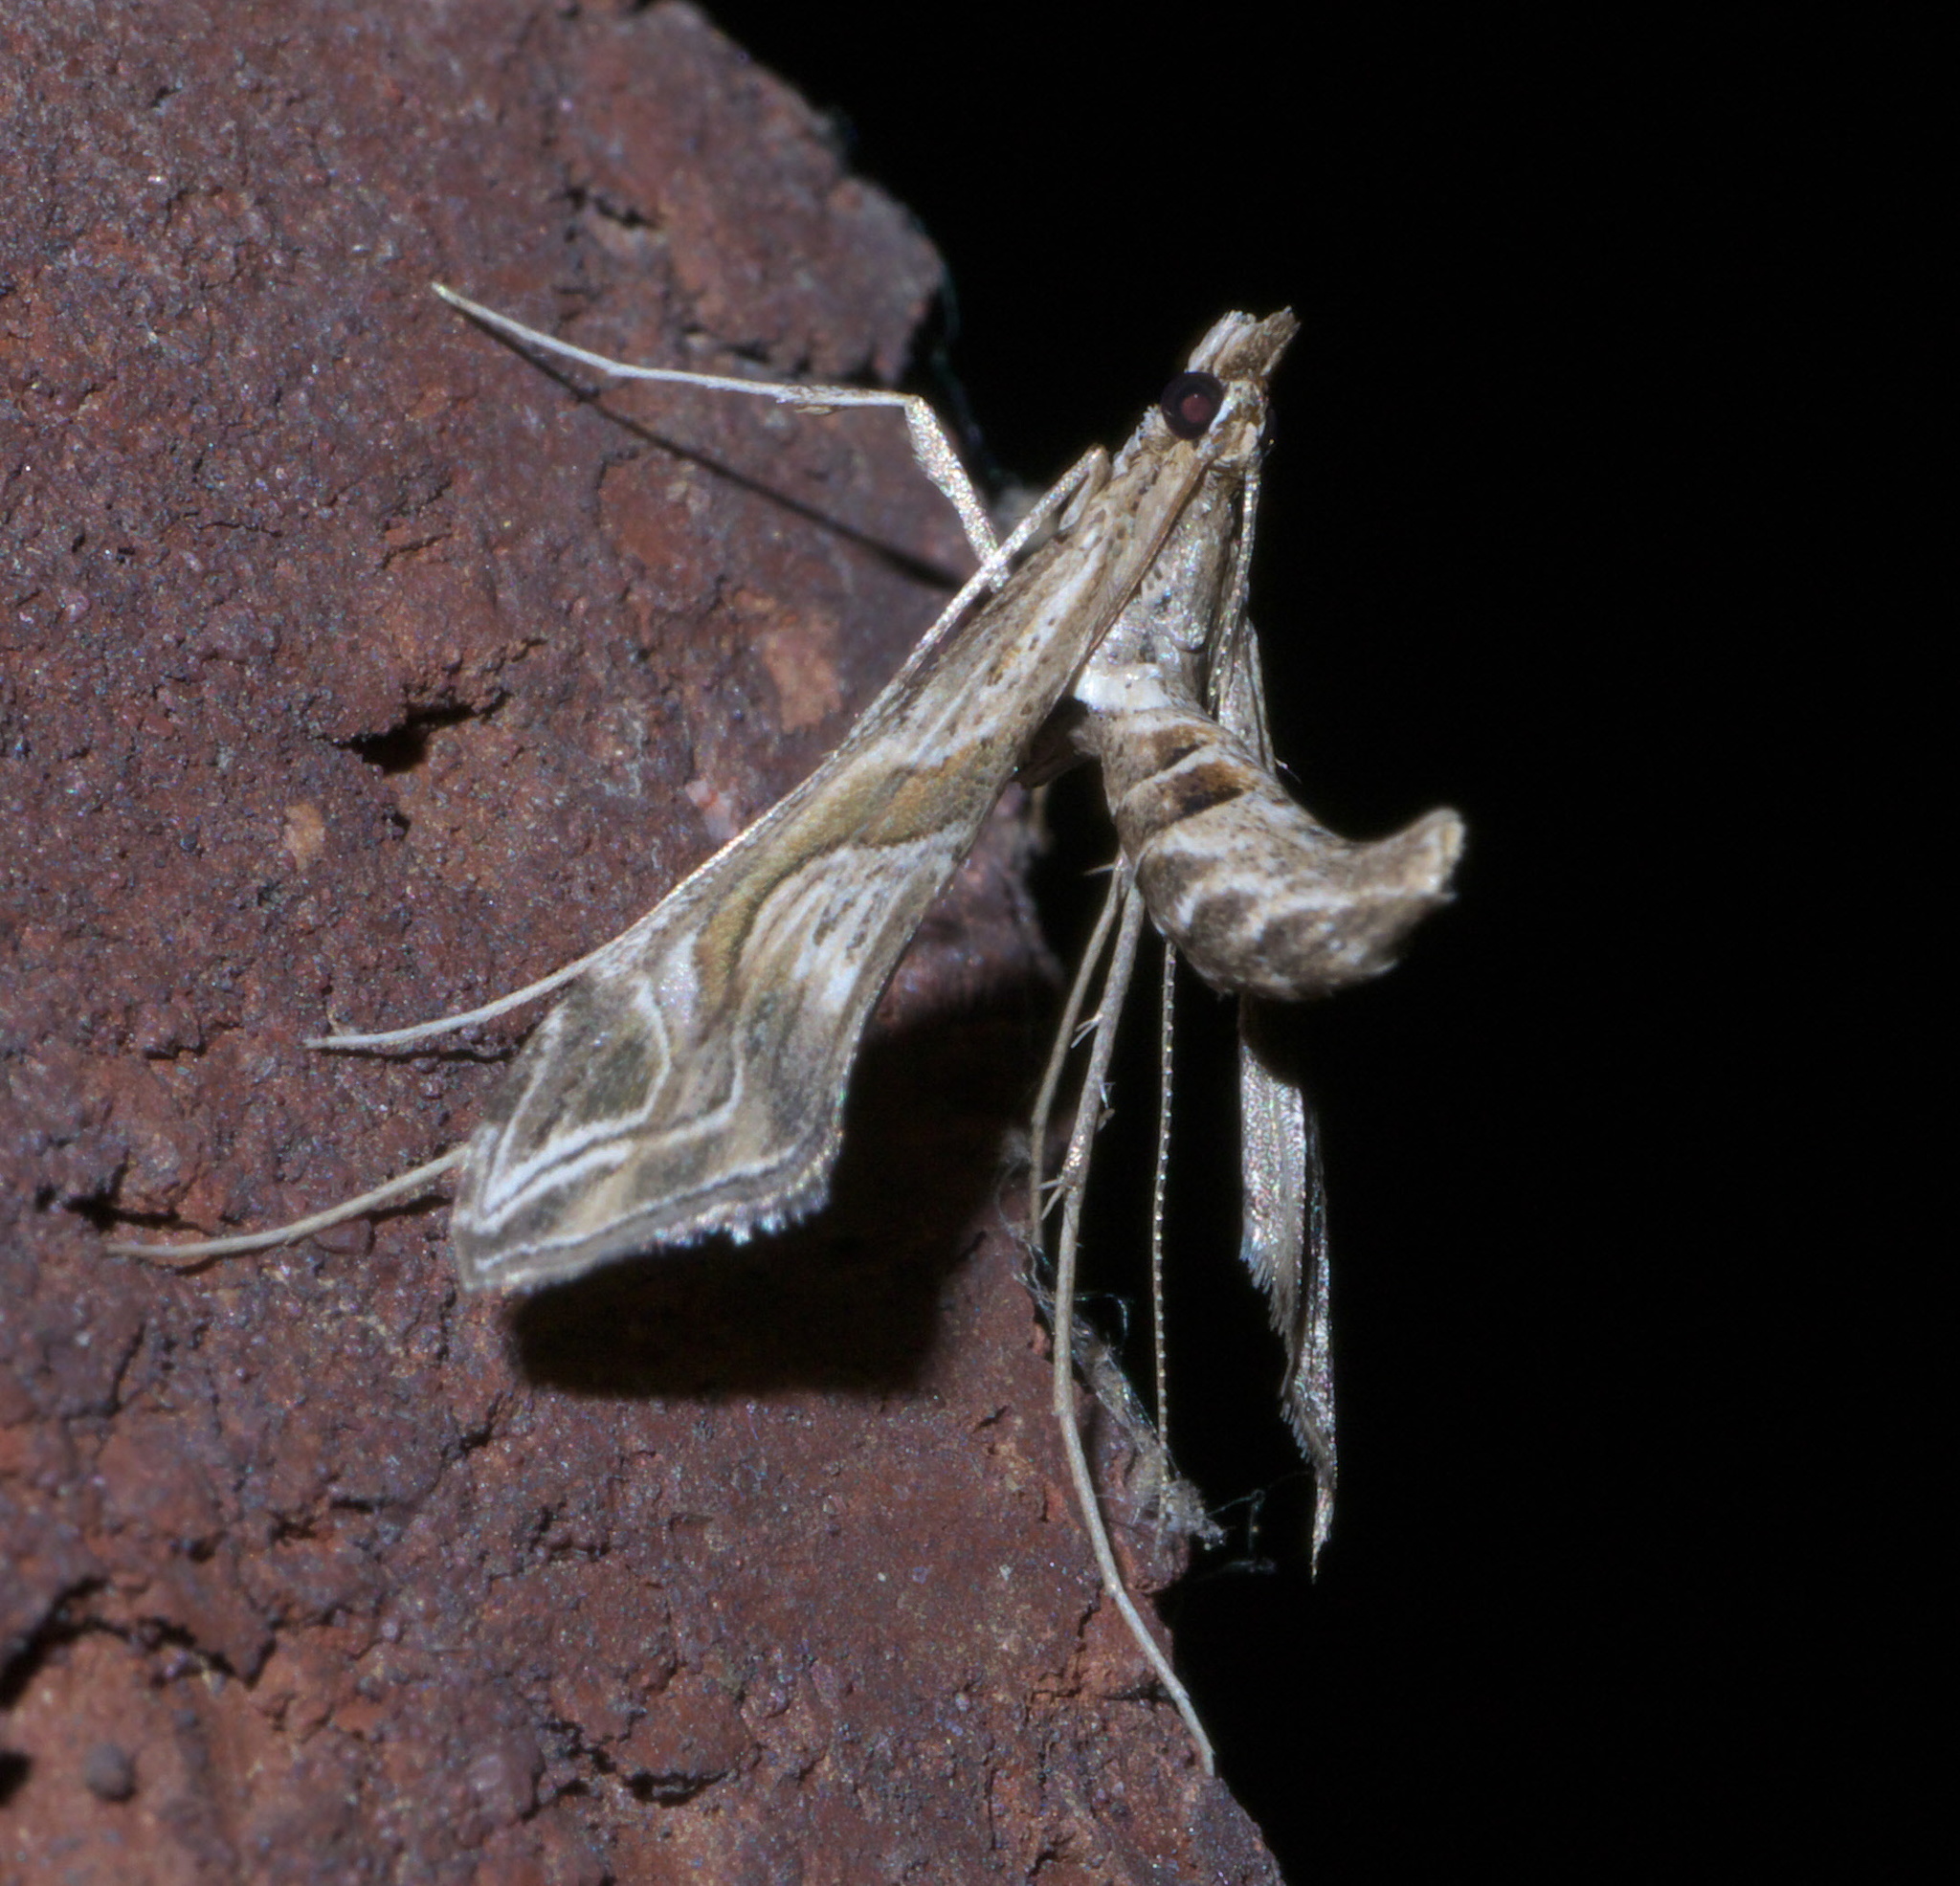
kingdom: Animalia
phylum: Arthropoda
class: Insecta
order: Lepidoptera
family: Crambidae
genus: Lineodes
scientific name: Lineodes integra
